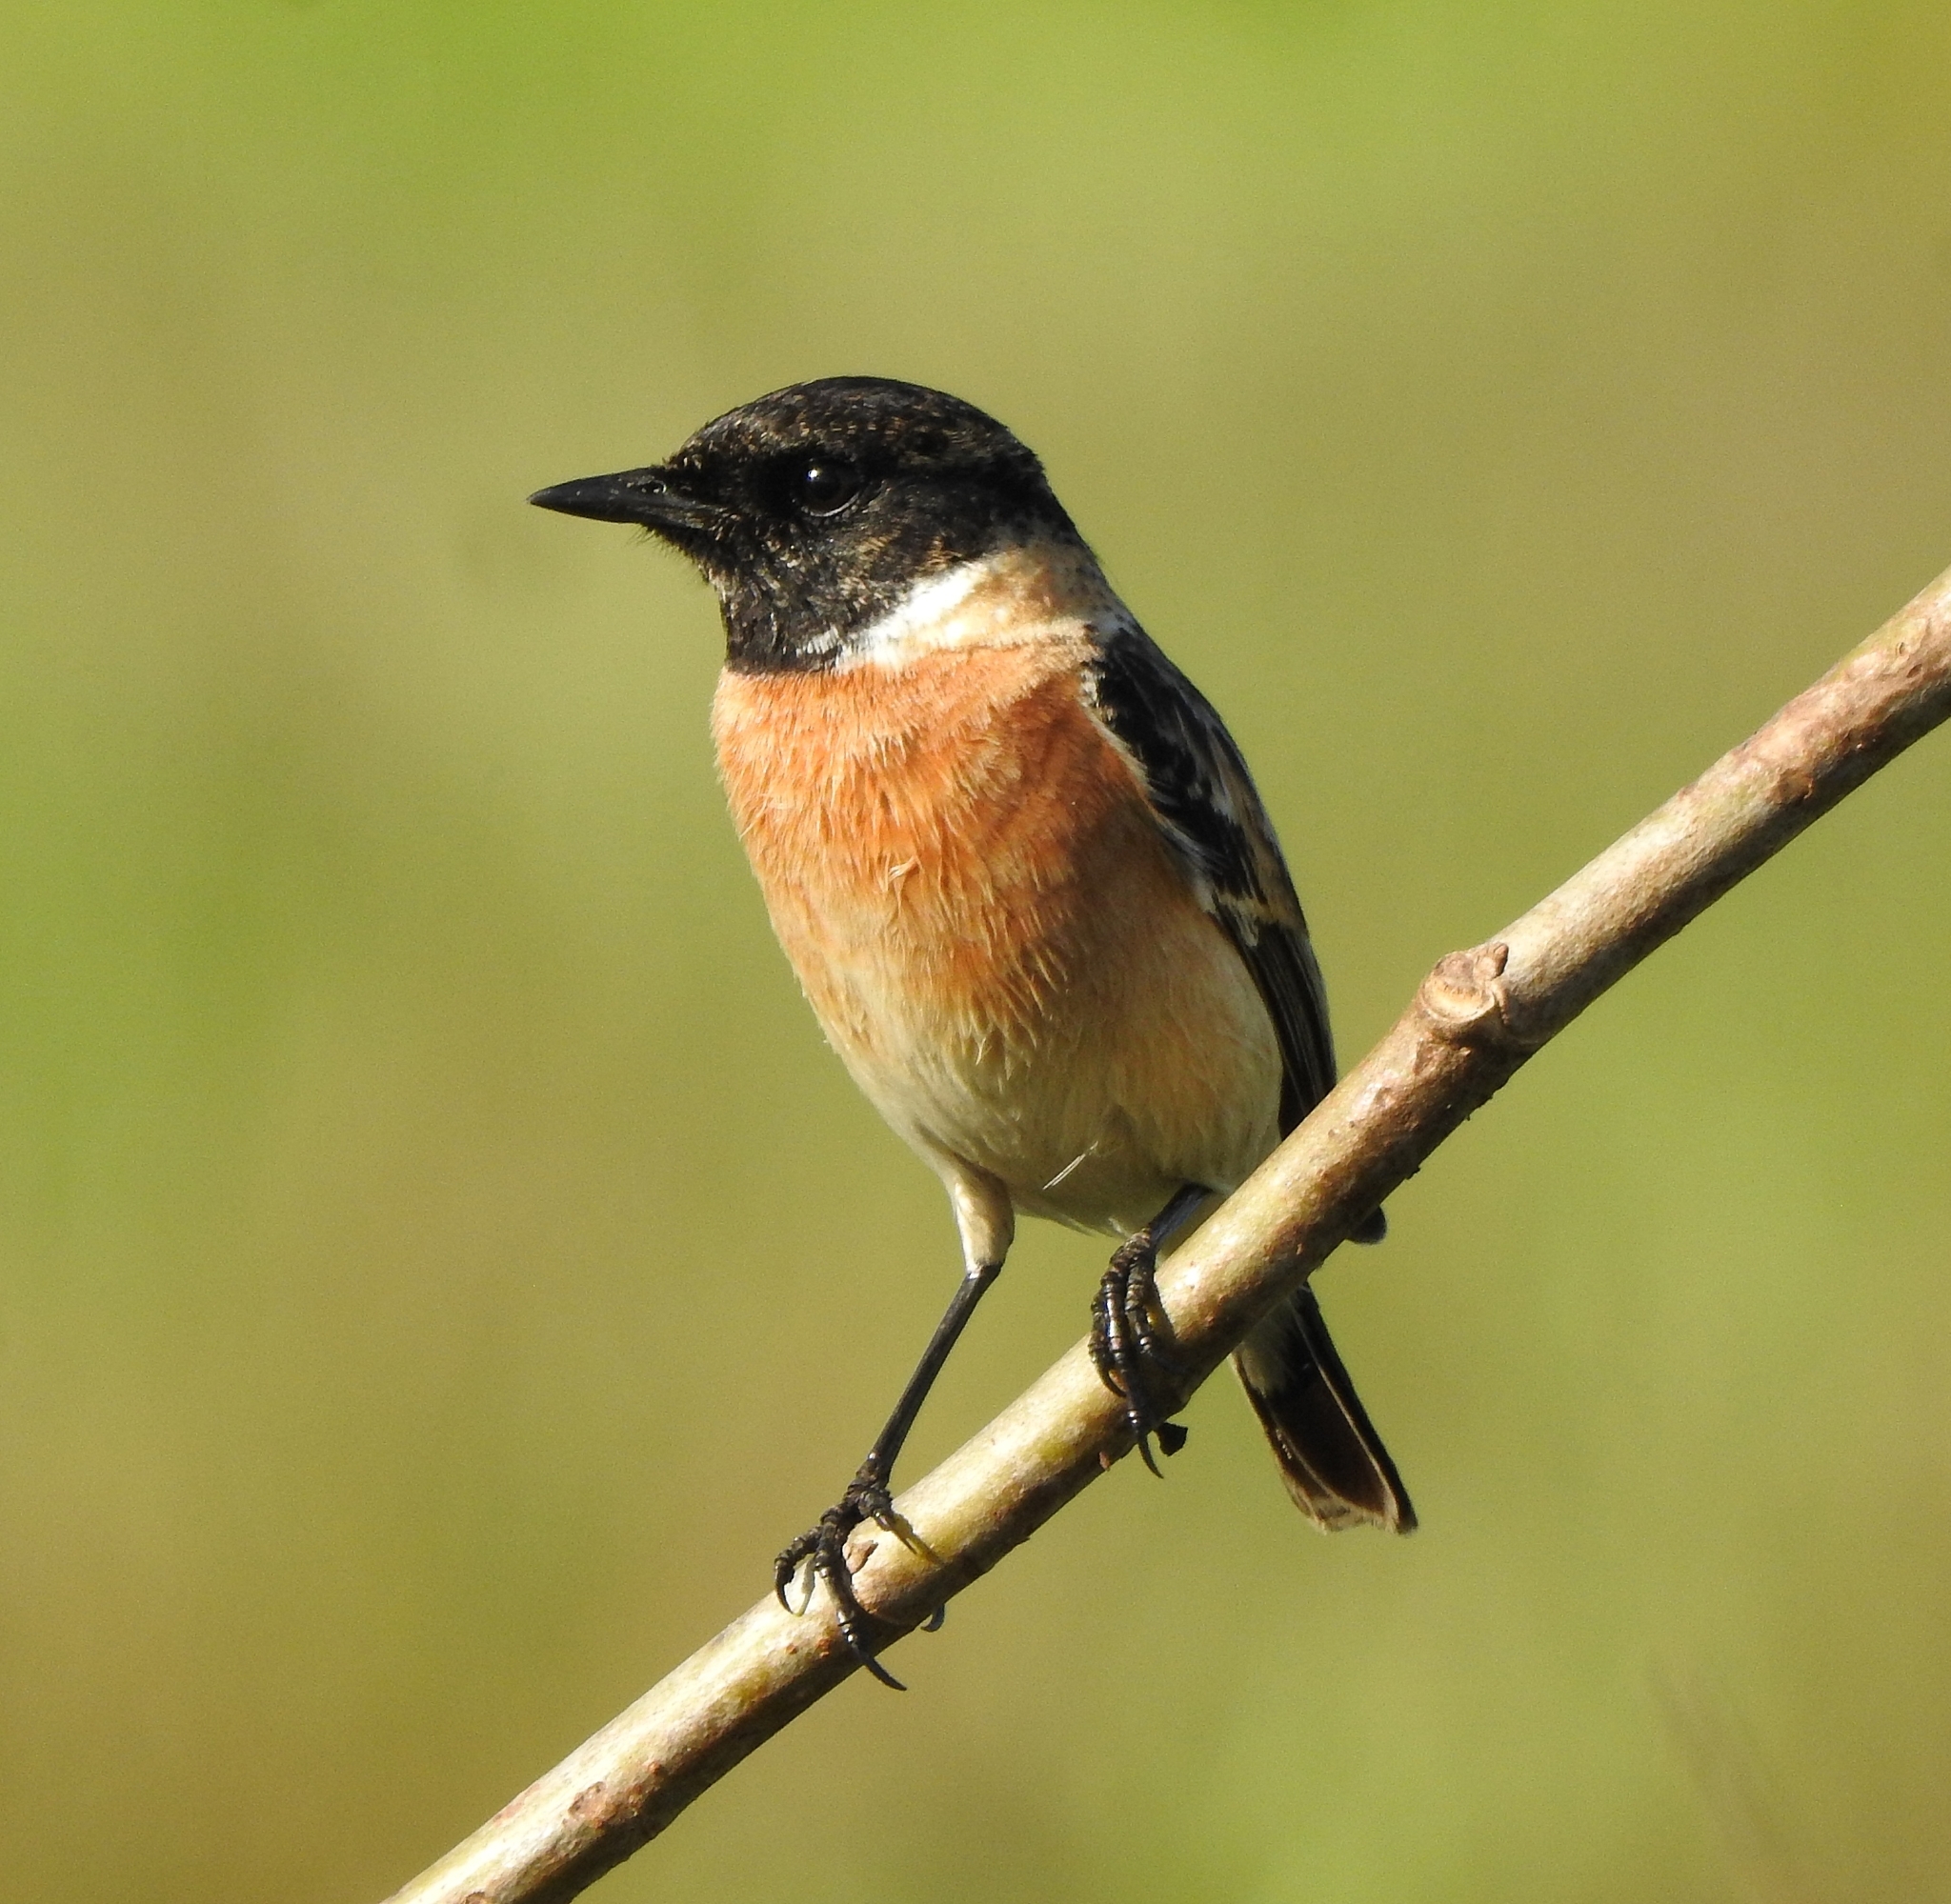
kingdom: Animalia
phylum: Chordata
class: Aves
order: Passeriformes
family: Muscicapidae
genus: Saxicola
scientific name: Saxicola maurus
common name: Siberian stonechat
